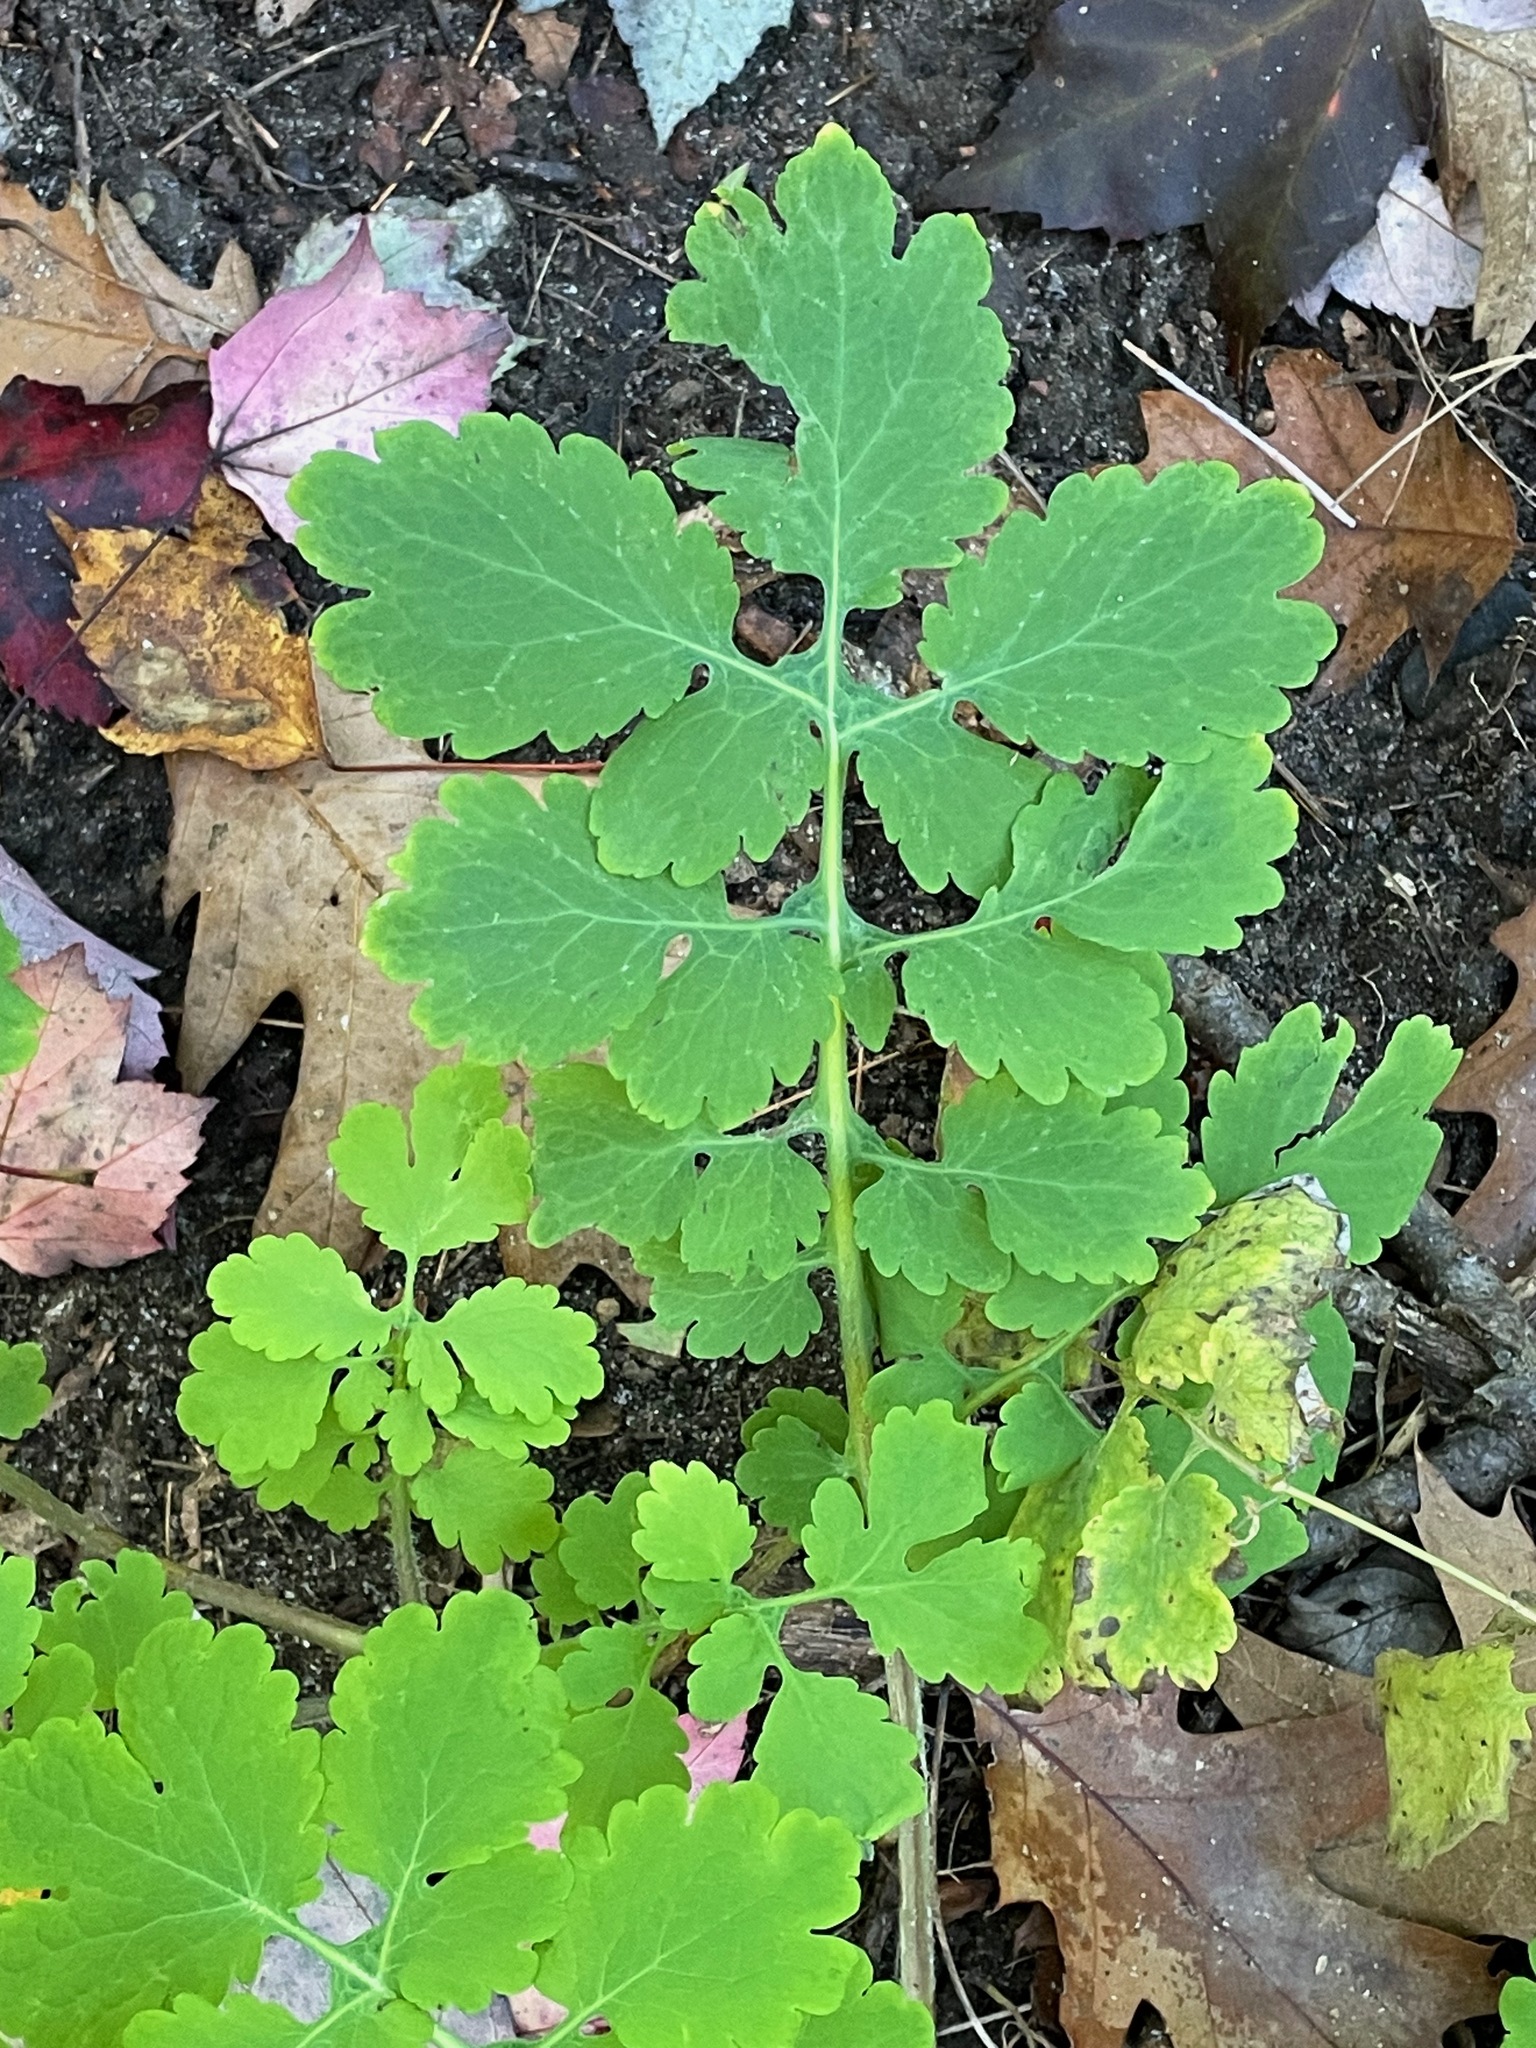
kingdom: Plantae
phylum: Tracheophyta
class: Magnoliopsida
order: Ranunculales
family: Papaveraceae
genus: Chelidonium
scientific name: Chelidonium majus
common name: Greater celandine
